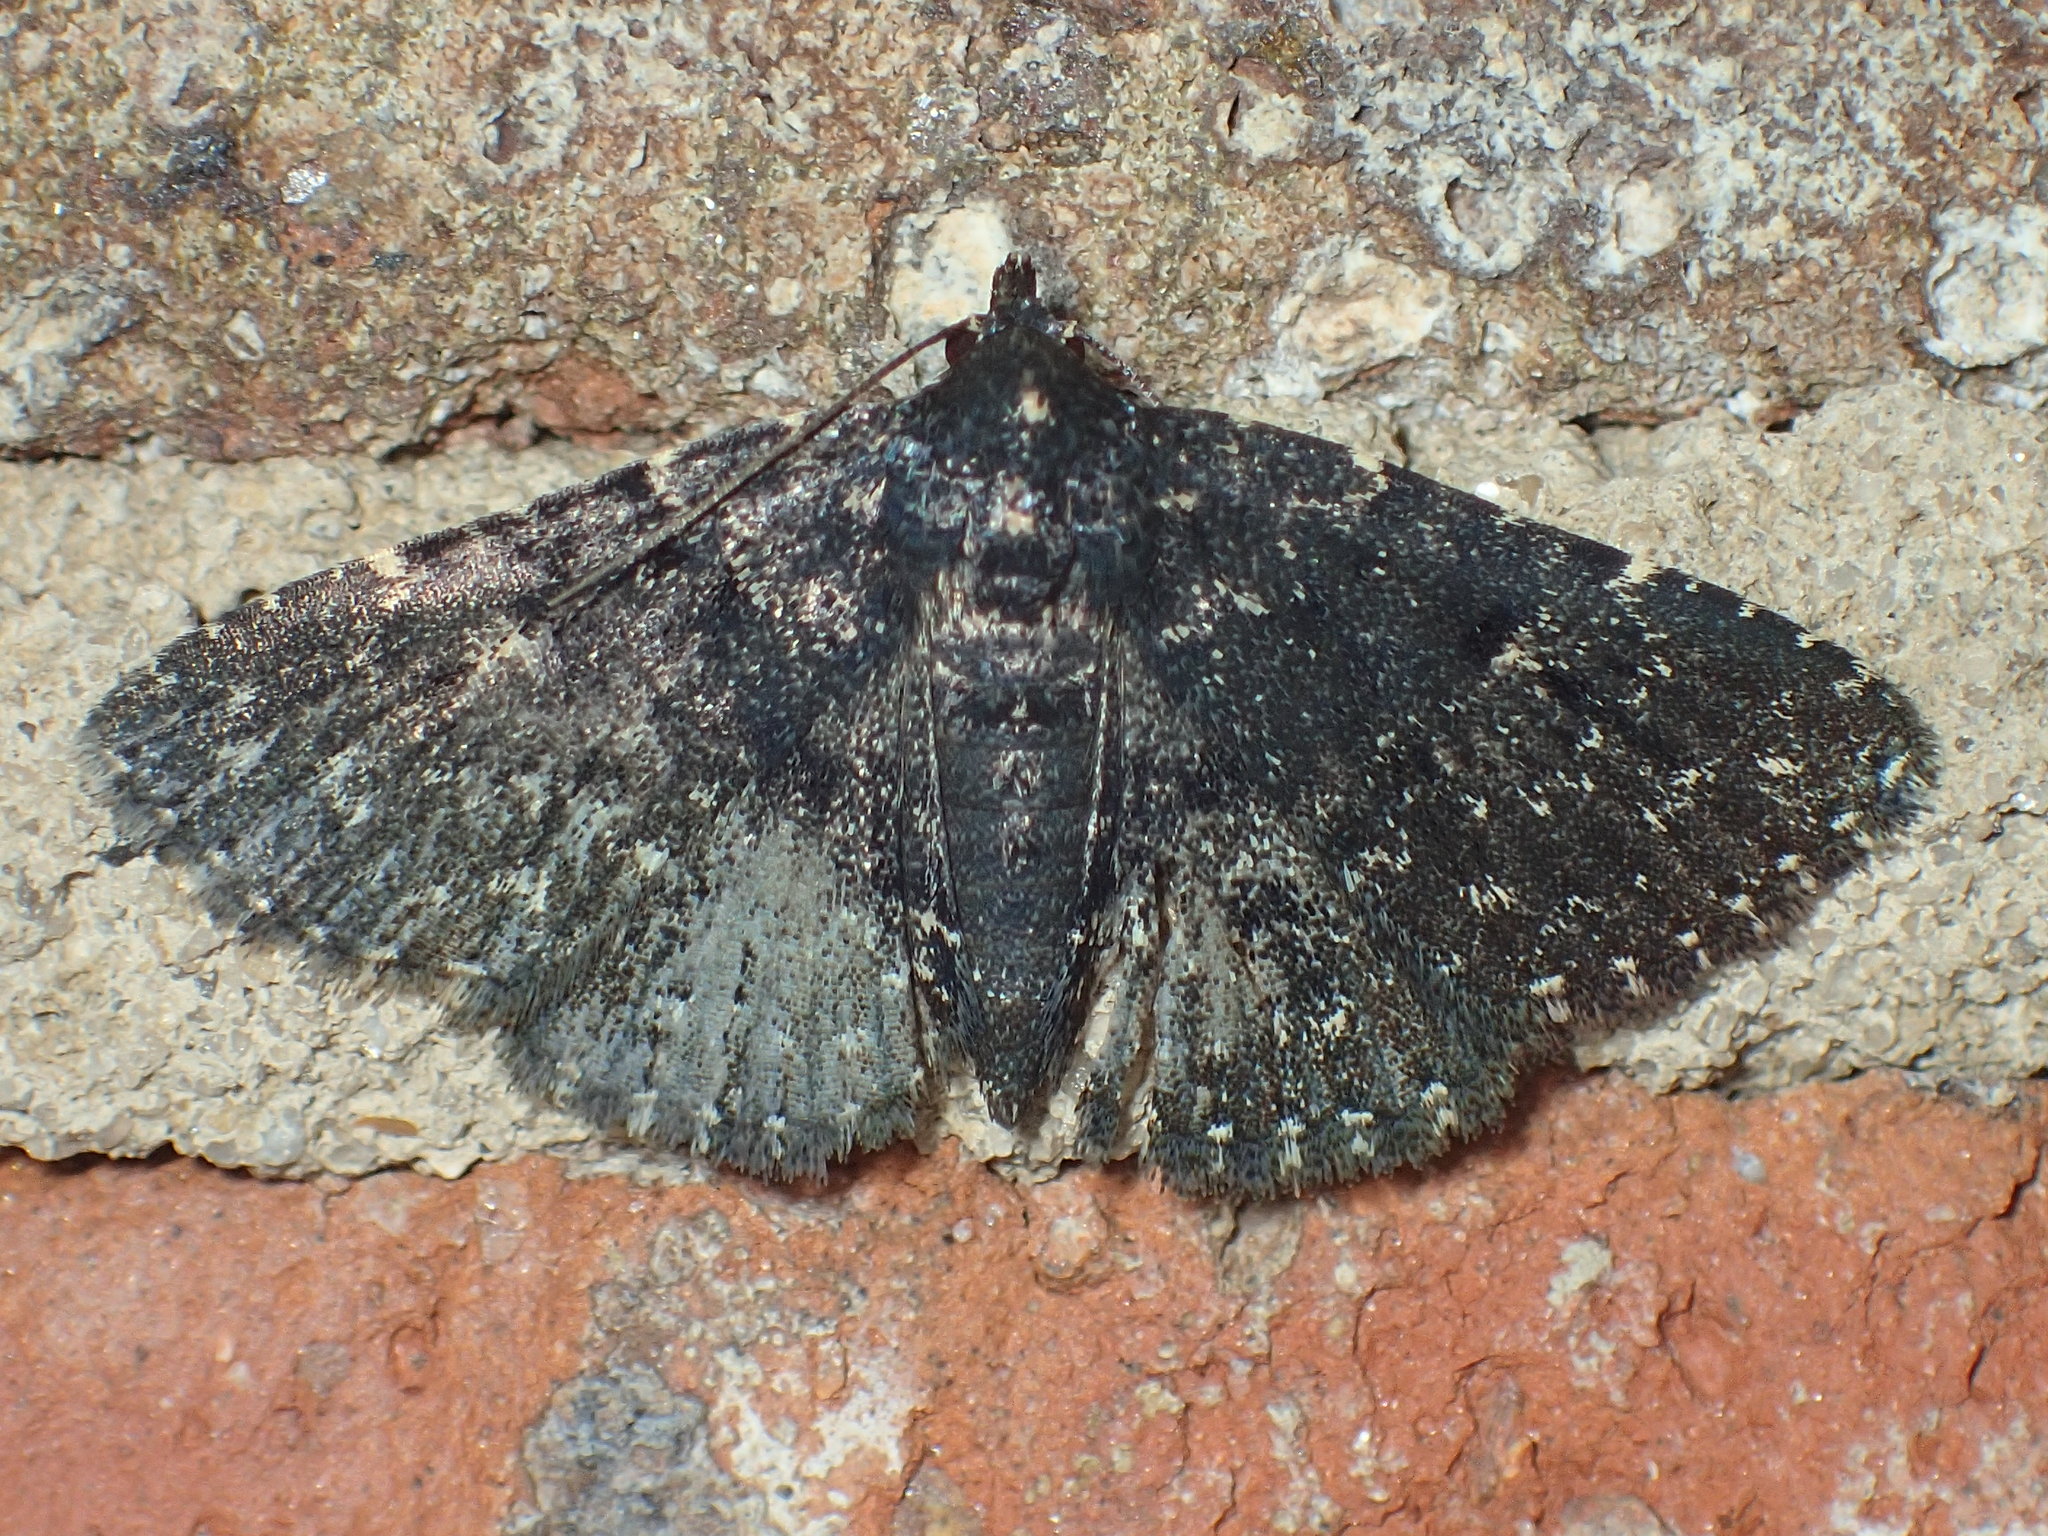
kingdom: Animalia
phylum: Arthropoda
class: Insecta
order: Lepidoptera
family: Erebidae
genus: Metalectra
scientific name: Metalectra tantillus
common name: Black fungus moth
